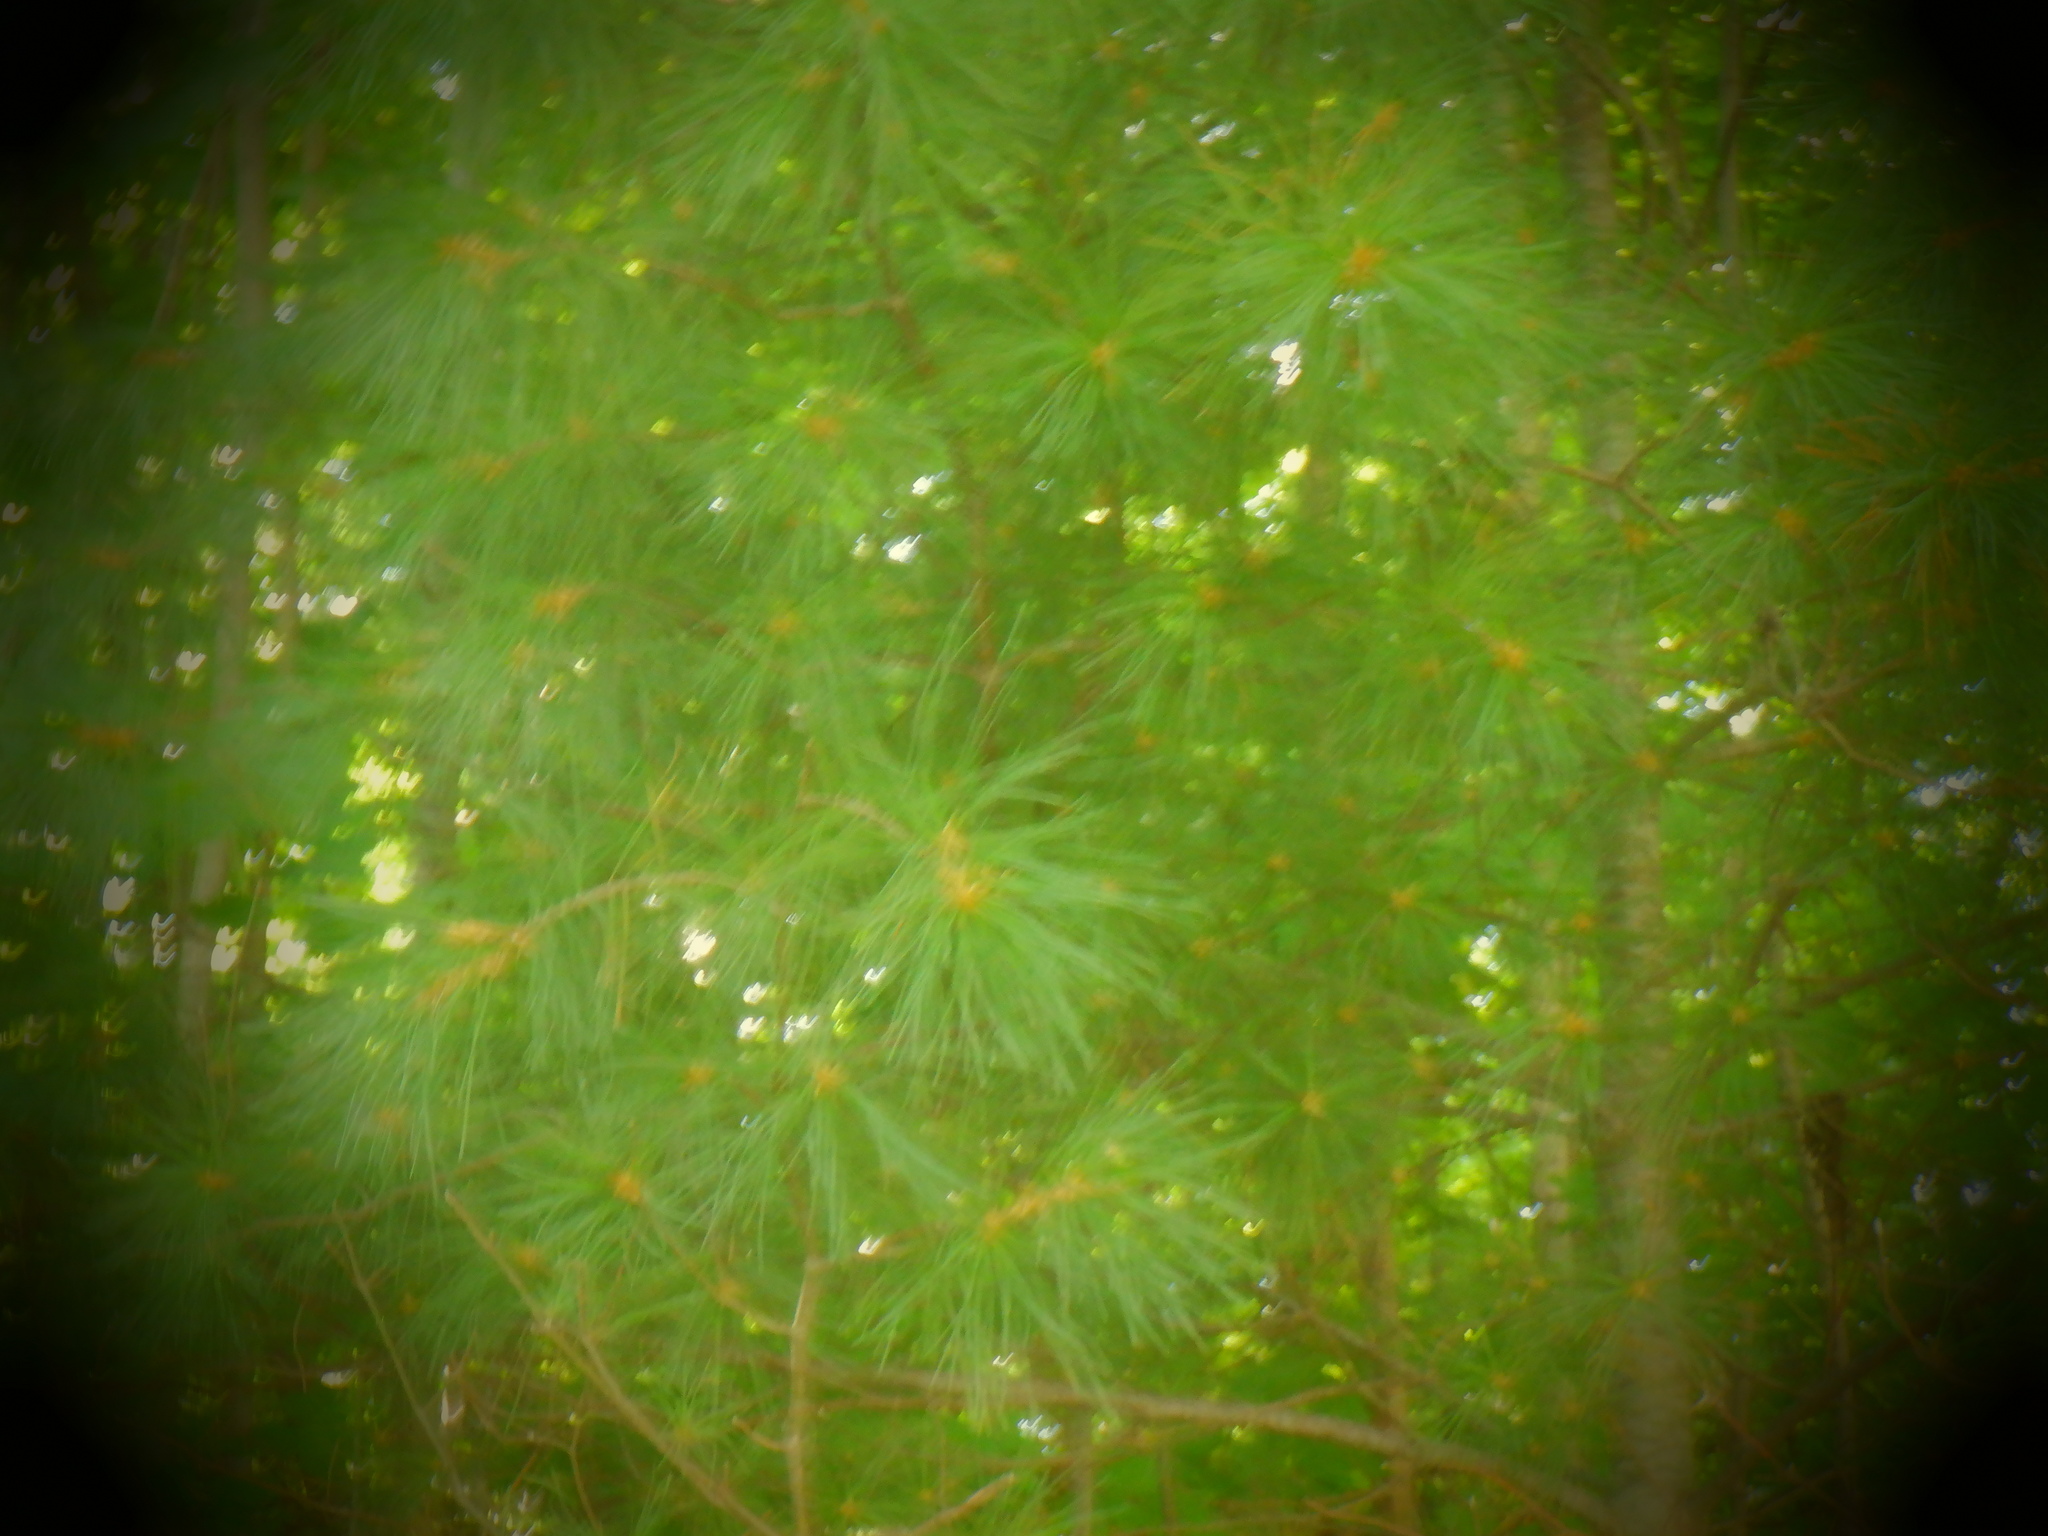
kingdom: Plantae
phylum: Tracheophyta
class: Pinopsida
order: Pinales
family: Pinaceae
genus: Pinus
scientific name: Pinus strobus
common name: Weymouth pine
